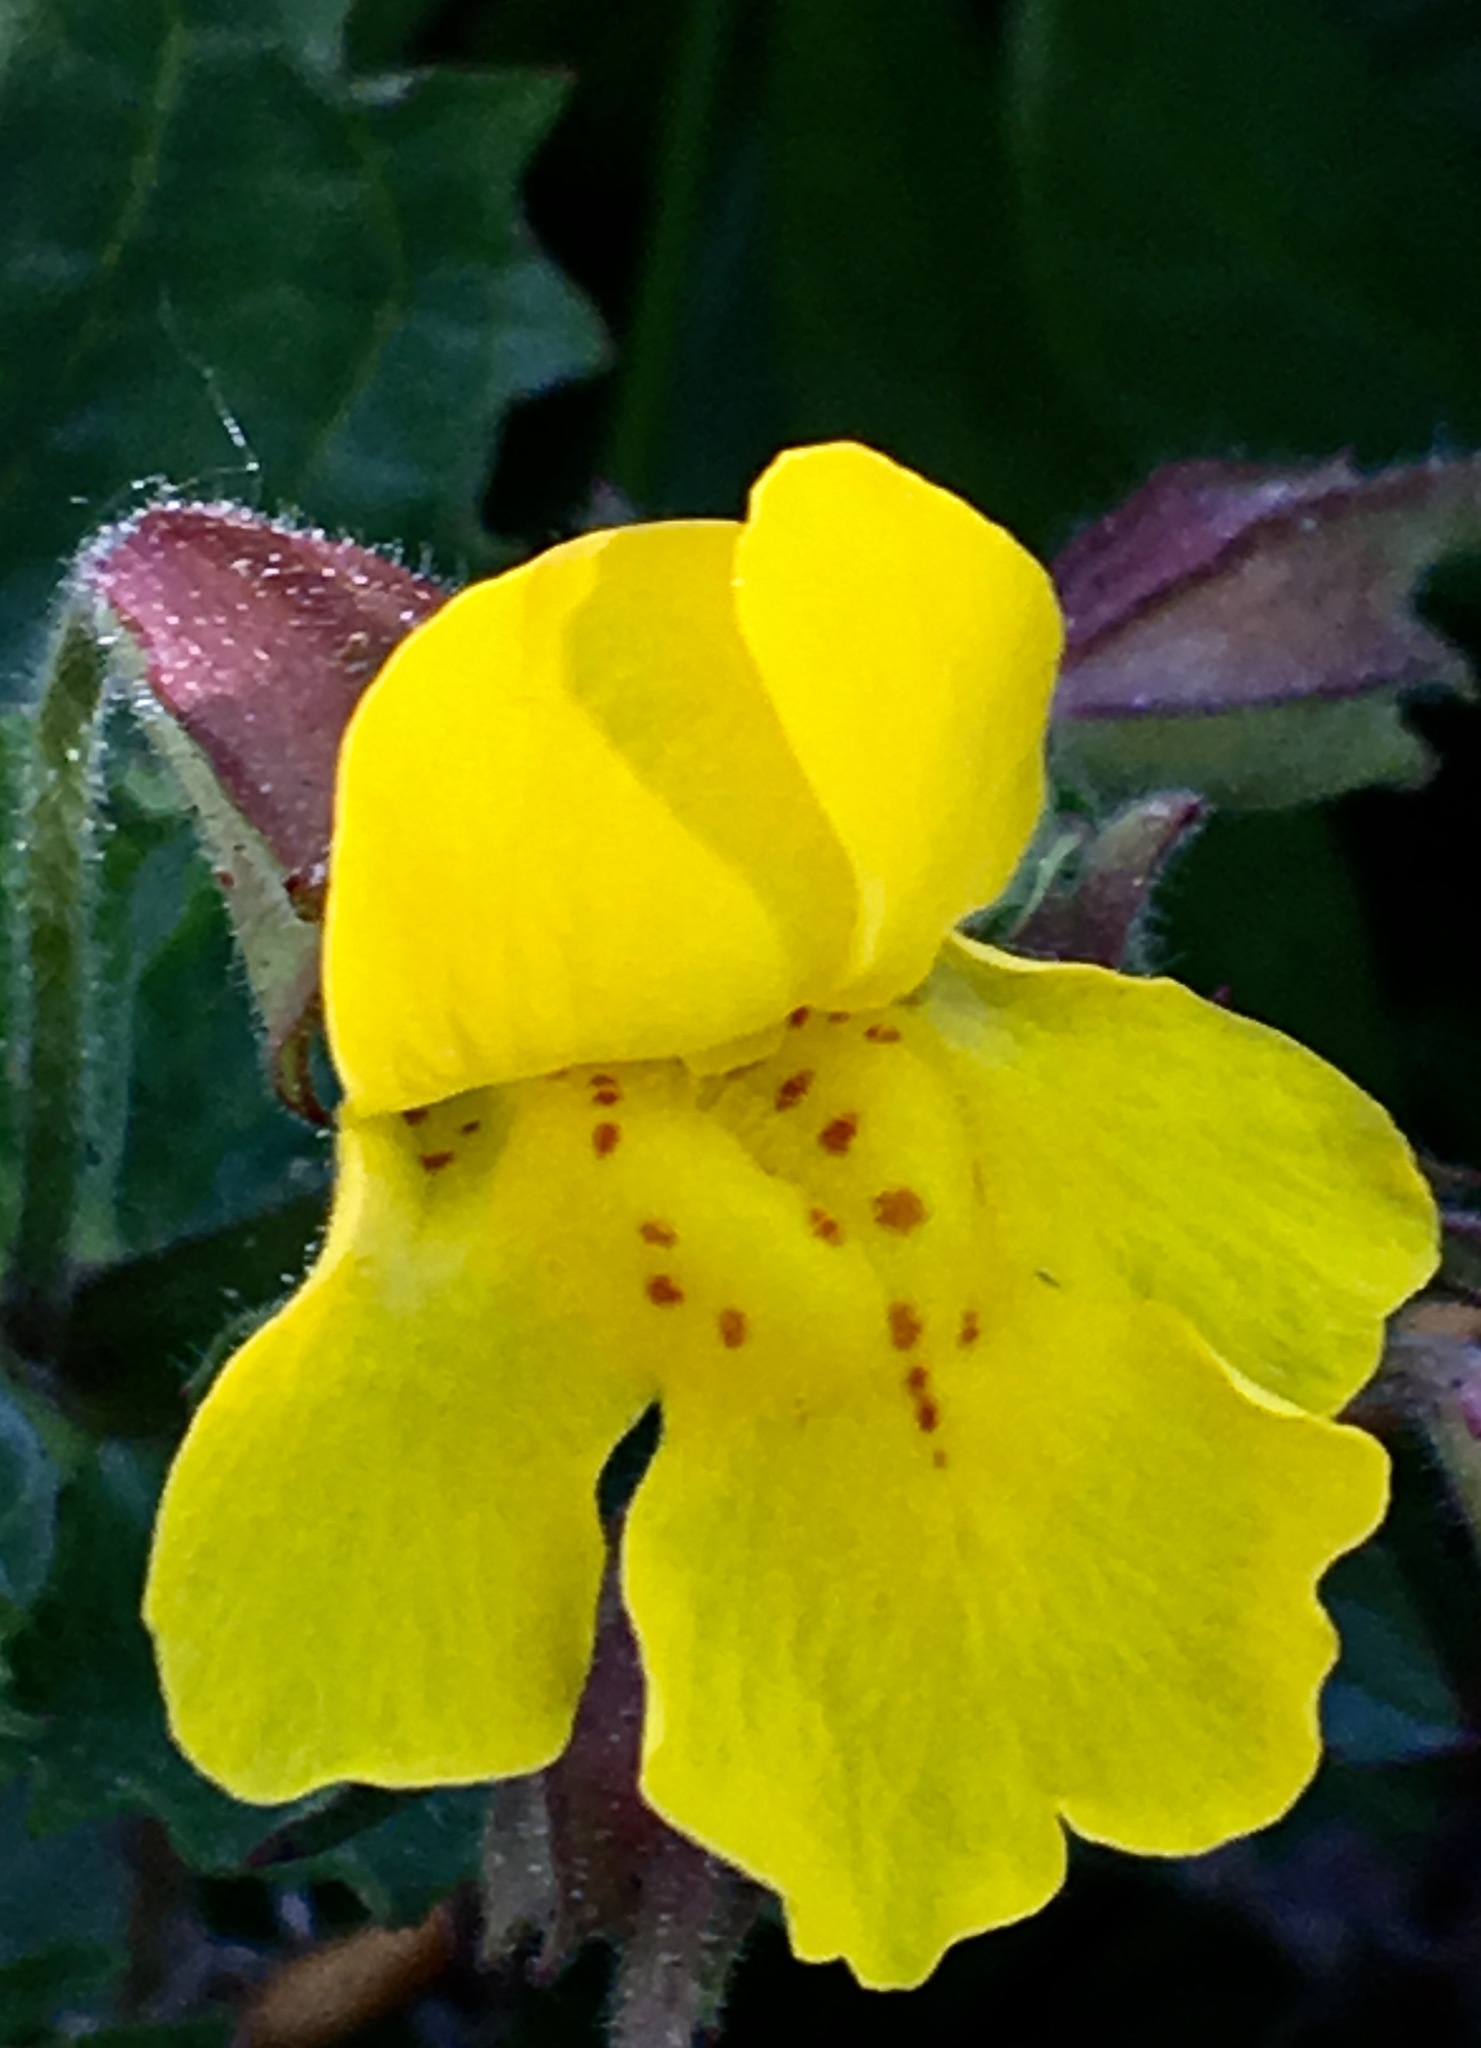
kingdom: Plantae
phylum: Tracheophyta
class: Magnoliopsida
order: Lamiales
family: Phrymaceae
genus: Erythranthe
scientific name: Erythranthe guttata
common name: Monkeyflower
